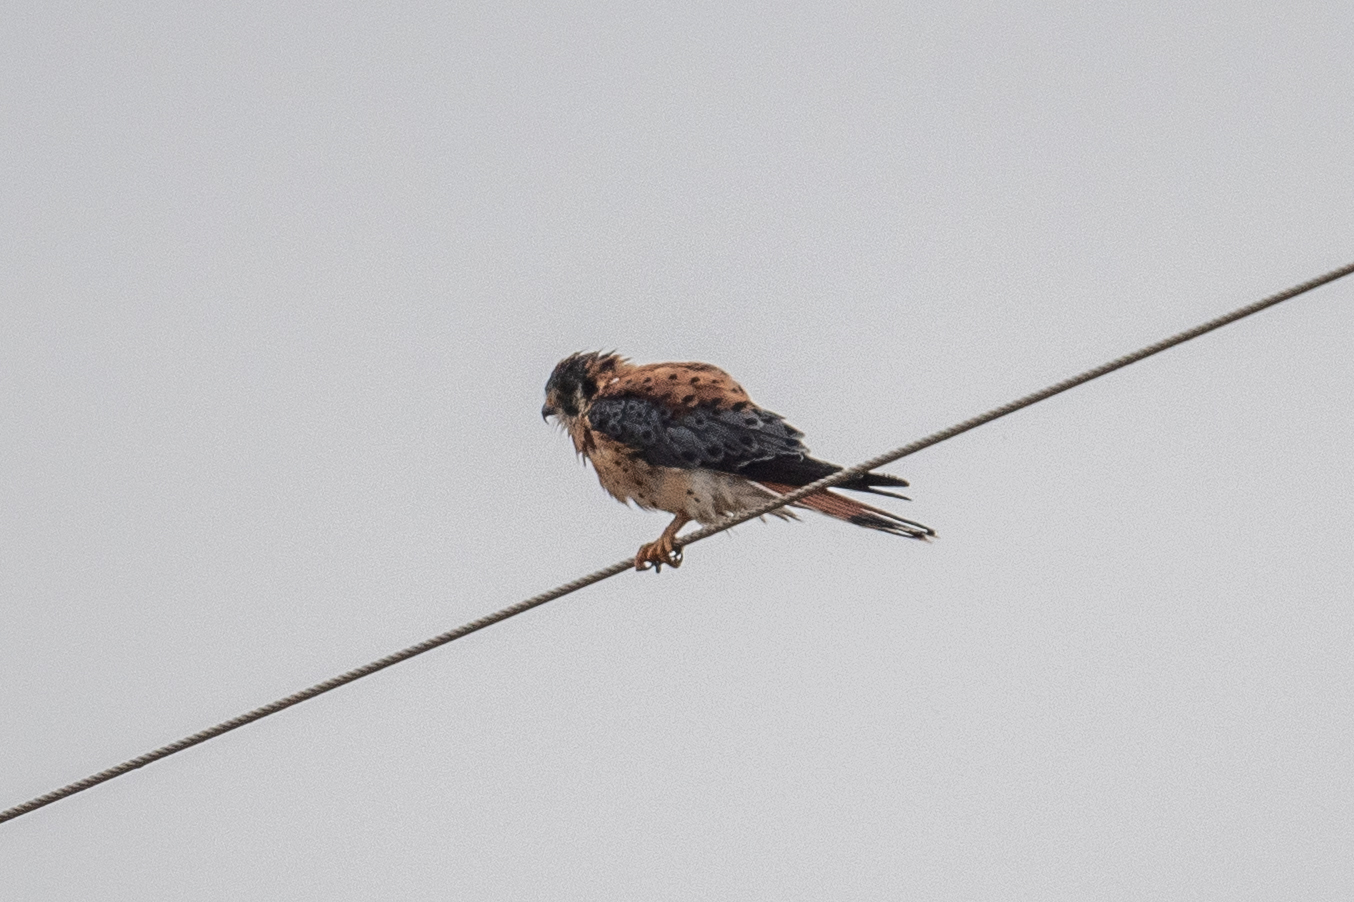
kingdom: Animalia
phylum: Chordata
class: Aves
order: Falconiformes
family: Falconidae
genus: Falco
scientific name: Falco sparverius
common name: American kestrel
